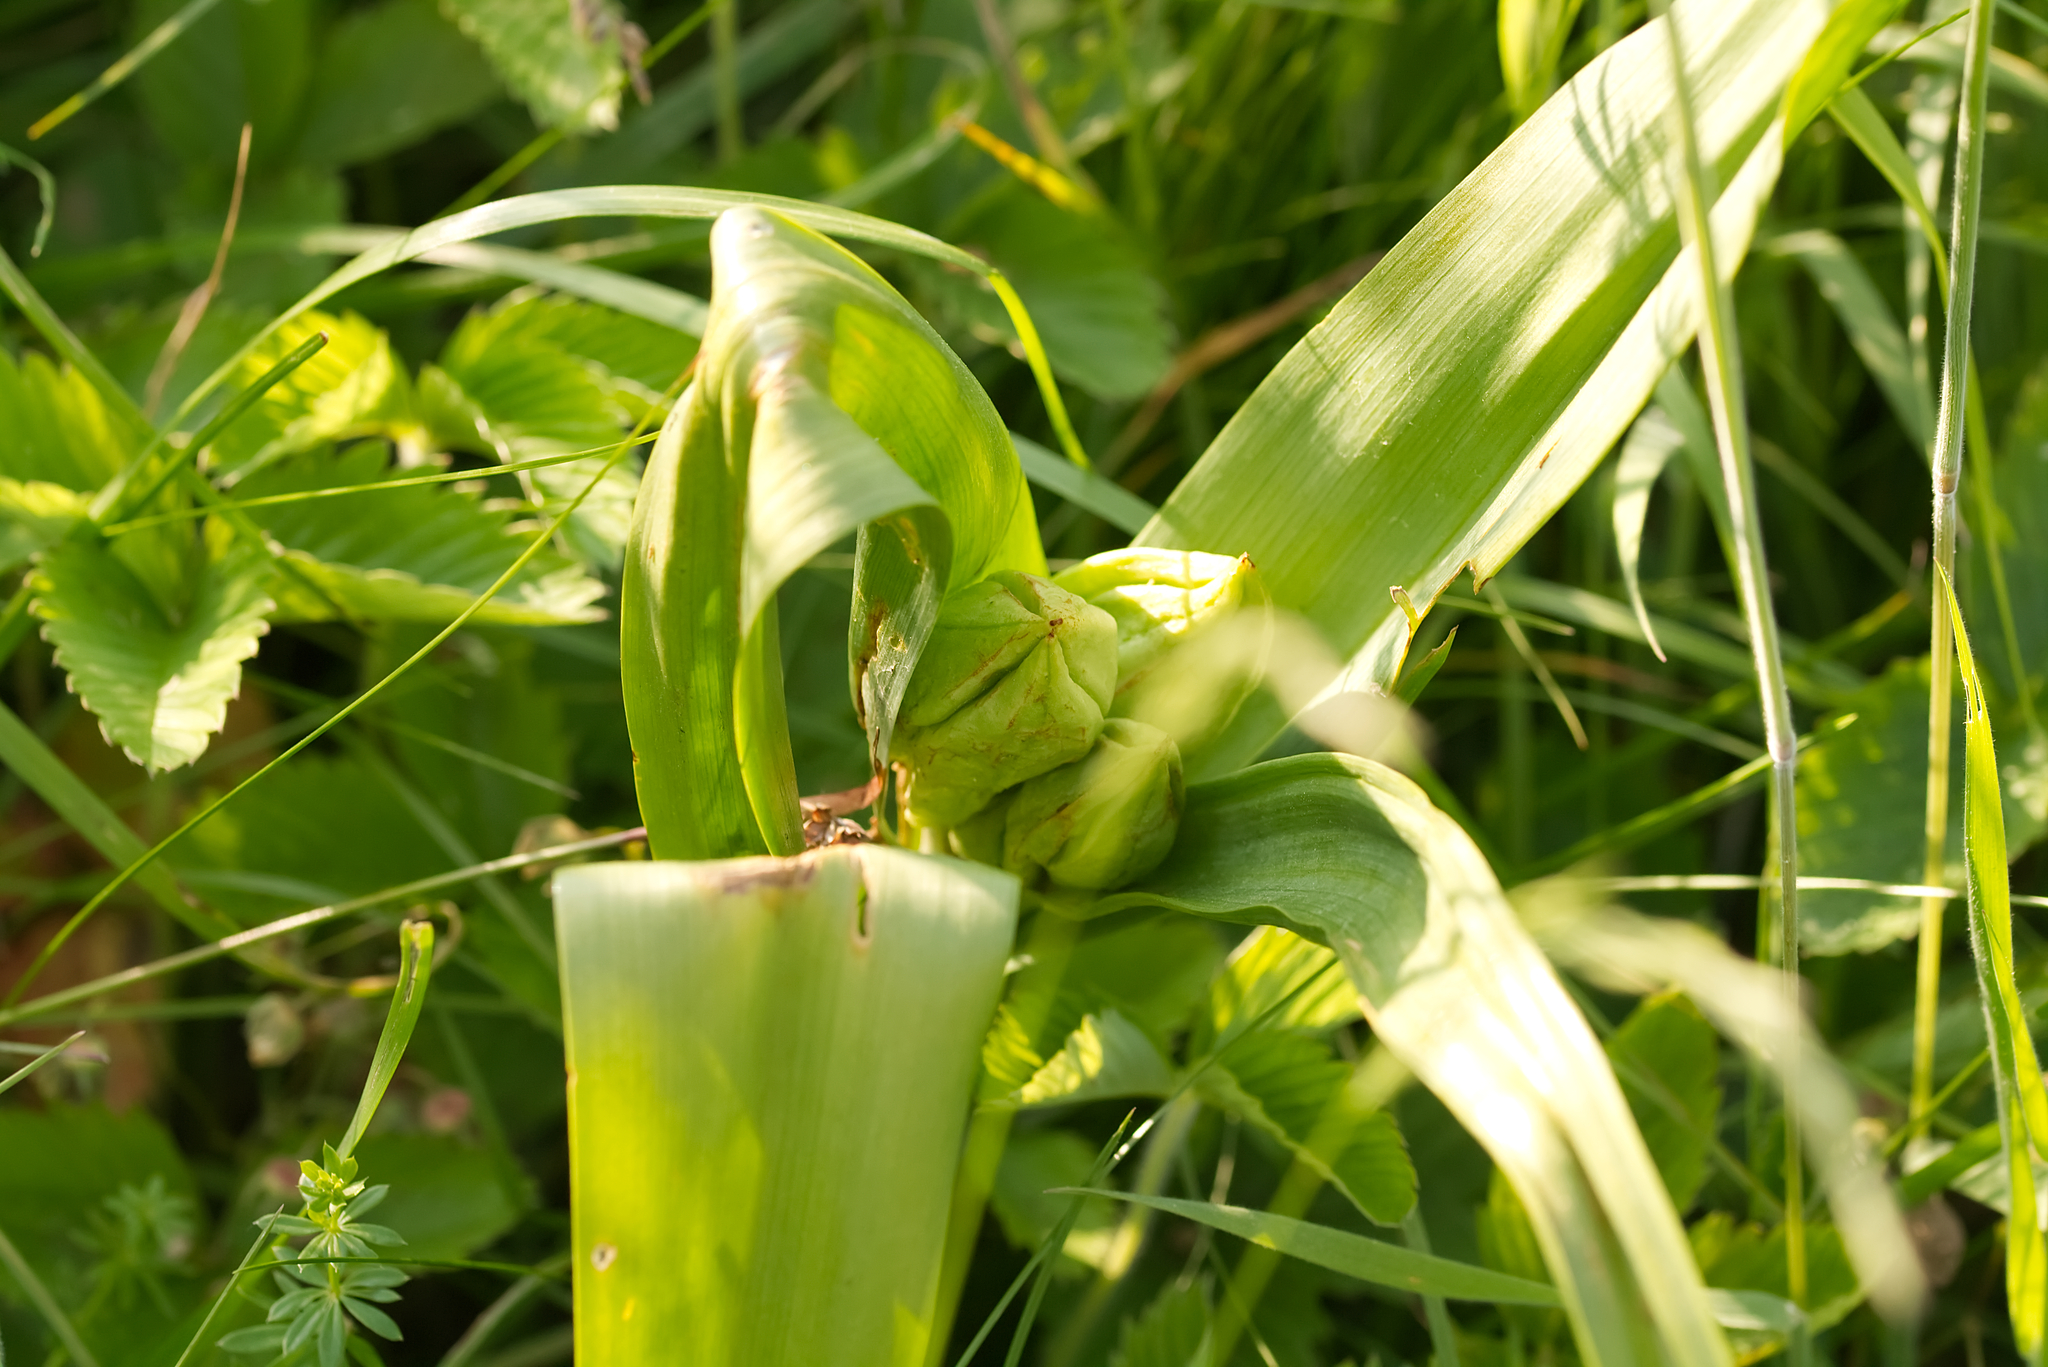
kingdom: Plantae
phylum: Tracheophyta
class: Liliopsida
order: Liliales
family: Colchicaceae
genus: Colchicum
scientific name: Colchicum autumnale
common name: Autumn crocus
